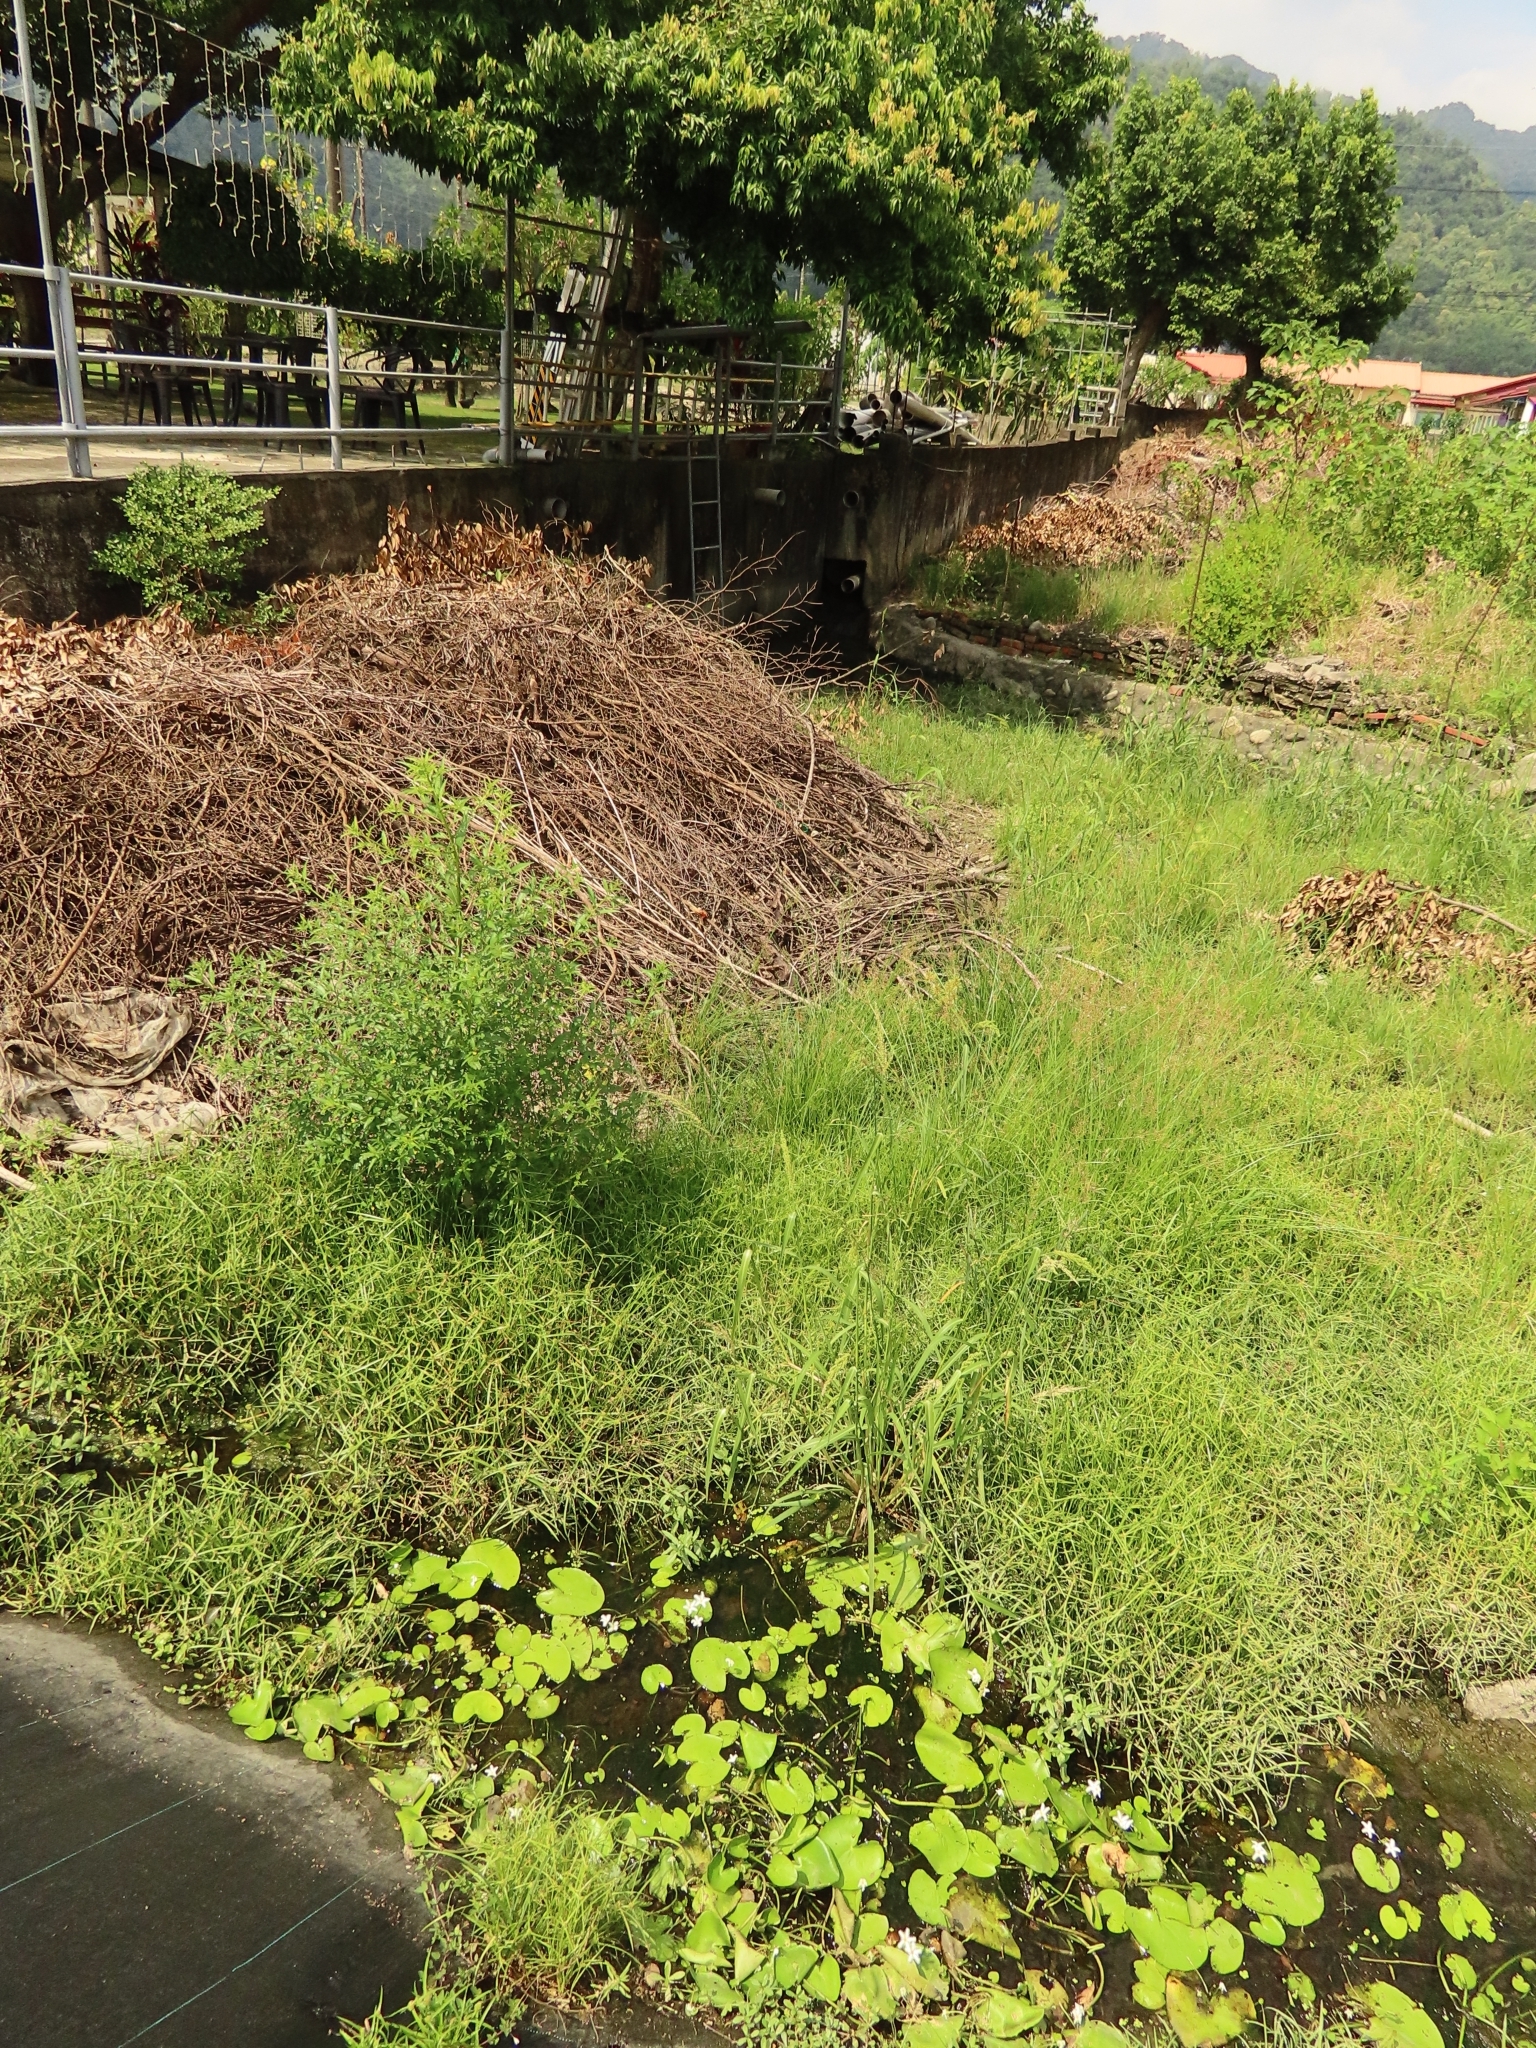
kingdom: Plantae
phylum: Tracheophyta
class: Magnoliopsida
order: Asterales
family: Menyanthaceae
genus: Nymphoides
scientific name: Nymphoides indica
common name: Water-snowflake
